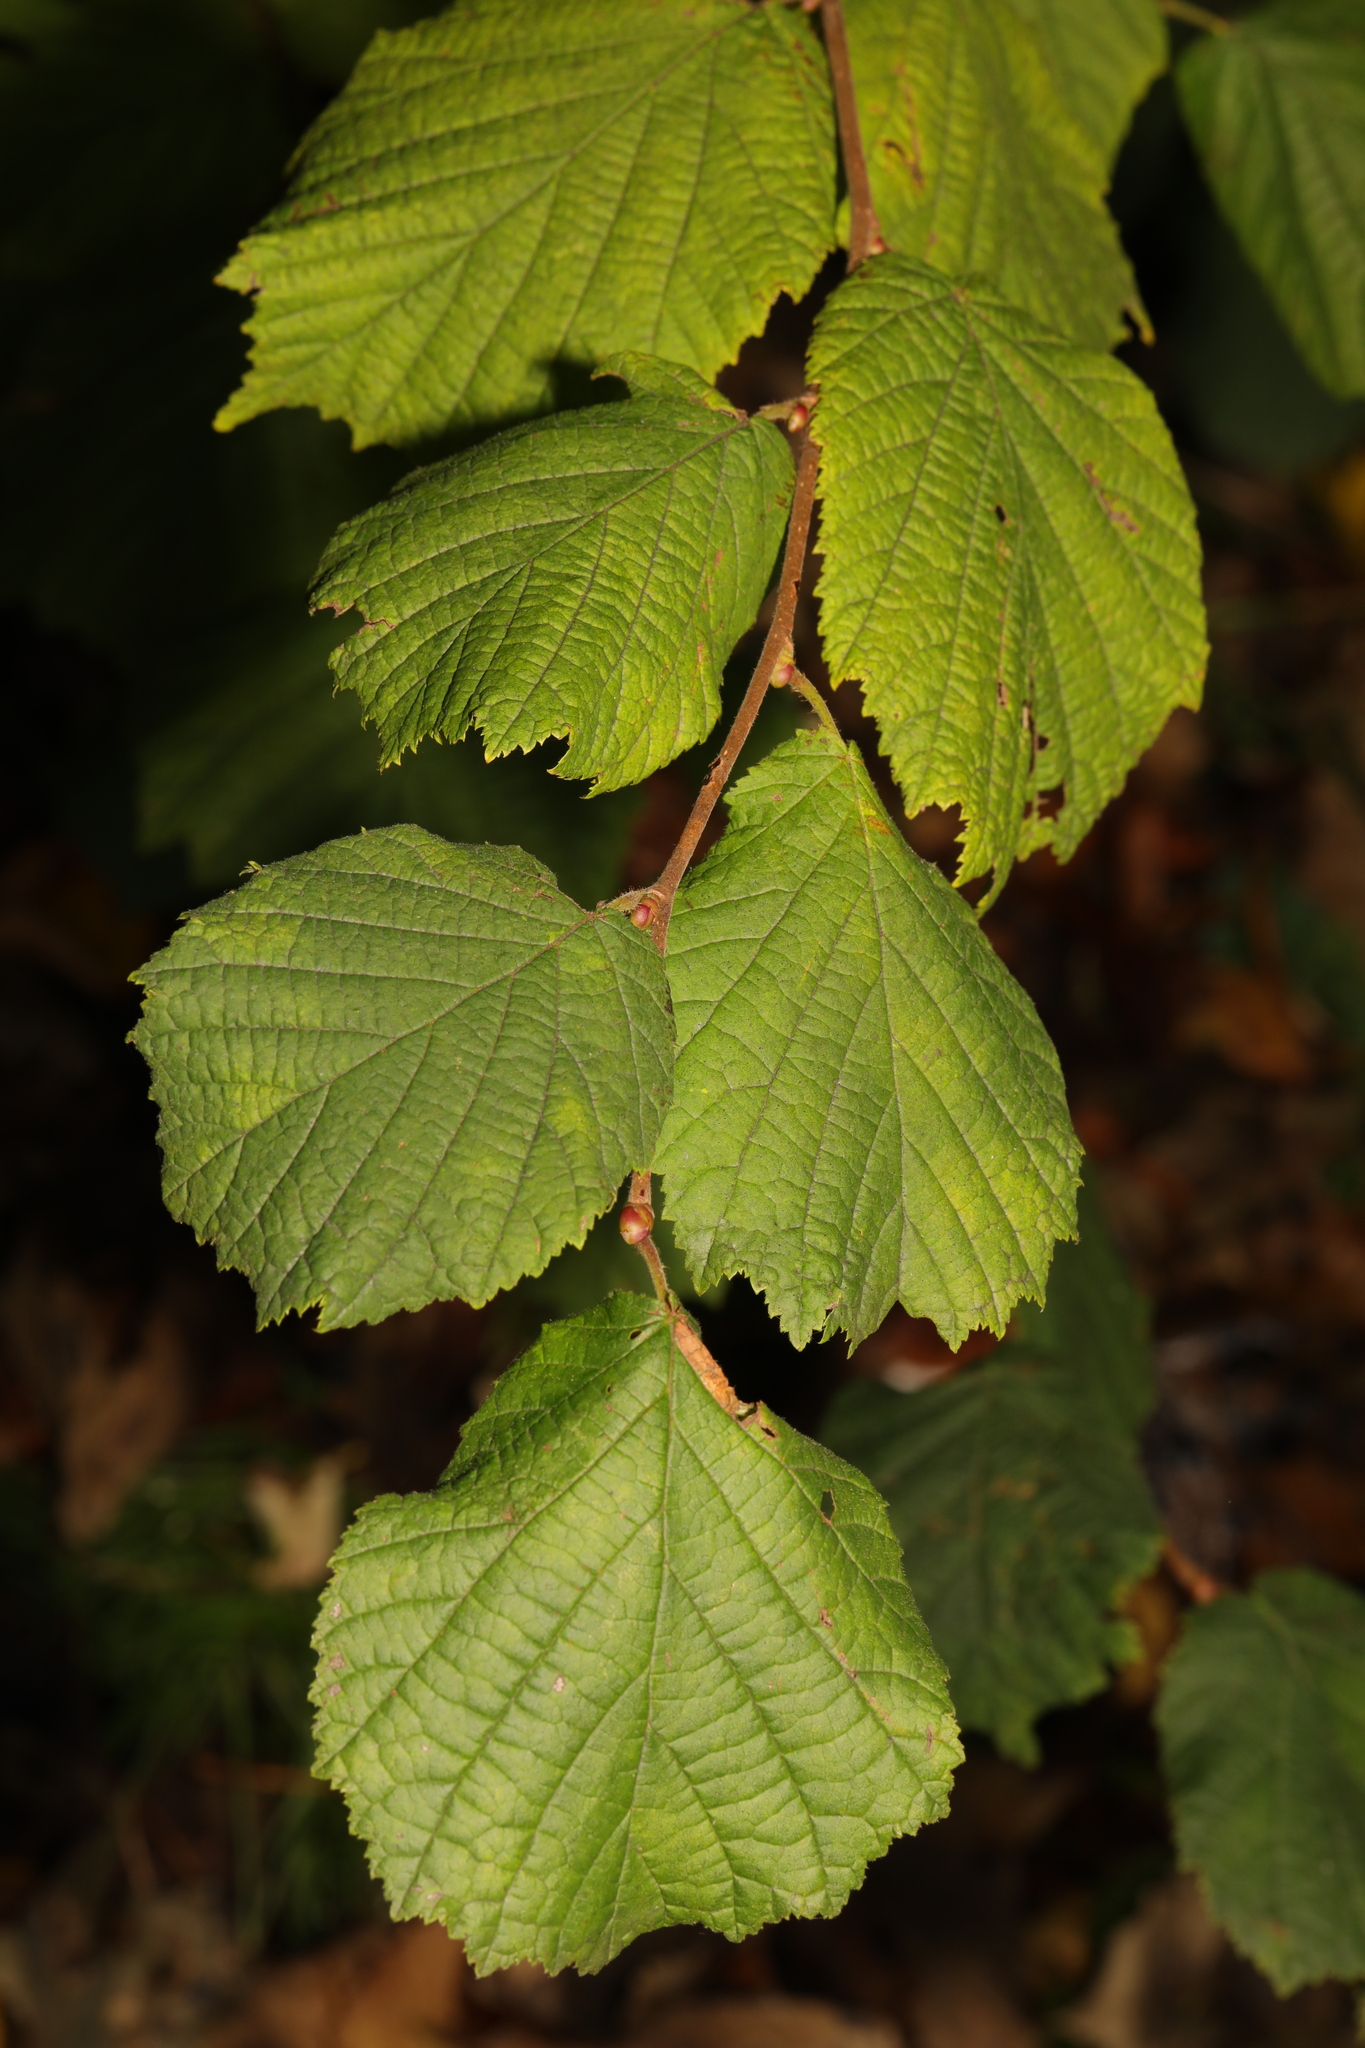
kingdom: Plantae
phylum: Tracheophyta
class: Magnoliopsida
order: Fagales
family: Betulaceae
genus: Corylus
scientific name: Corylus avellana
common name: European hazel
